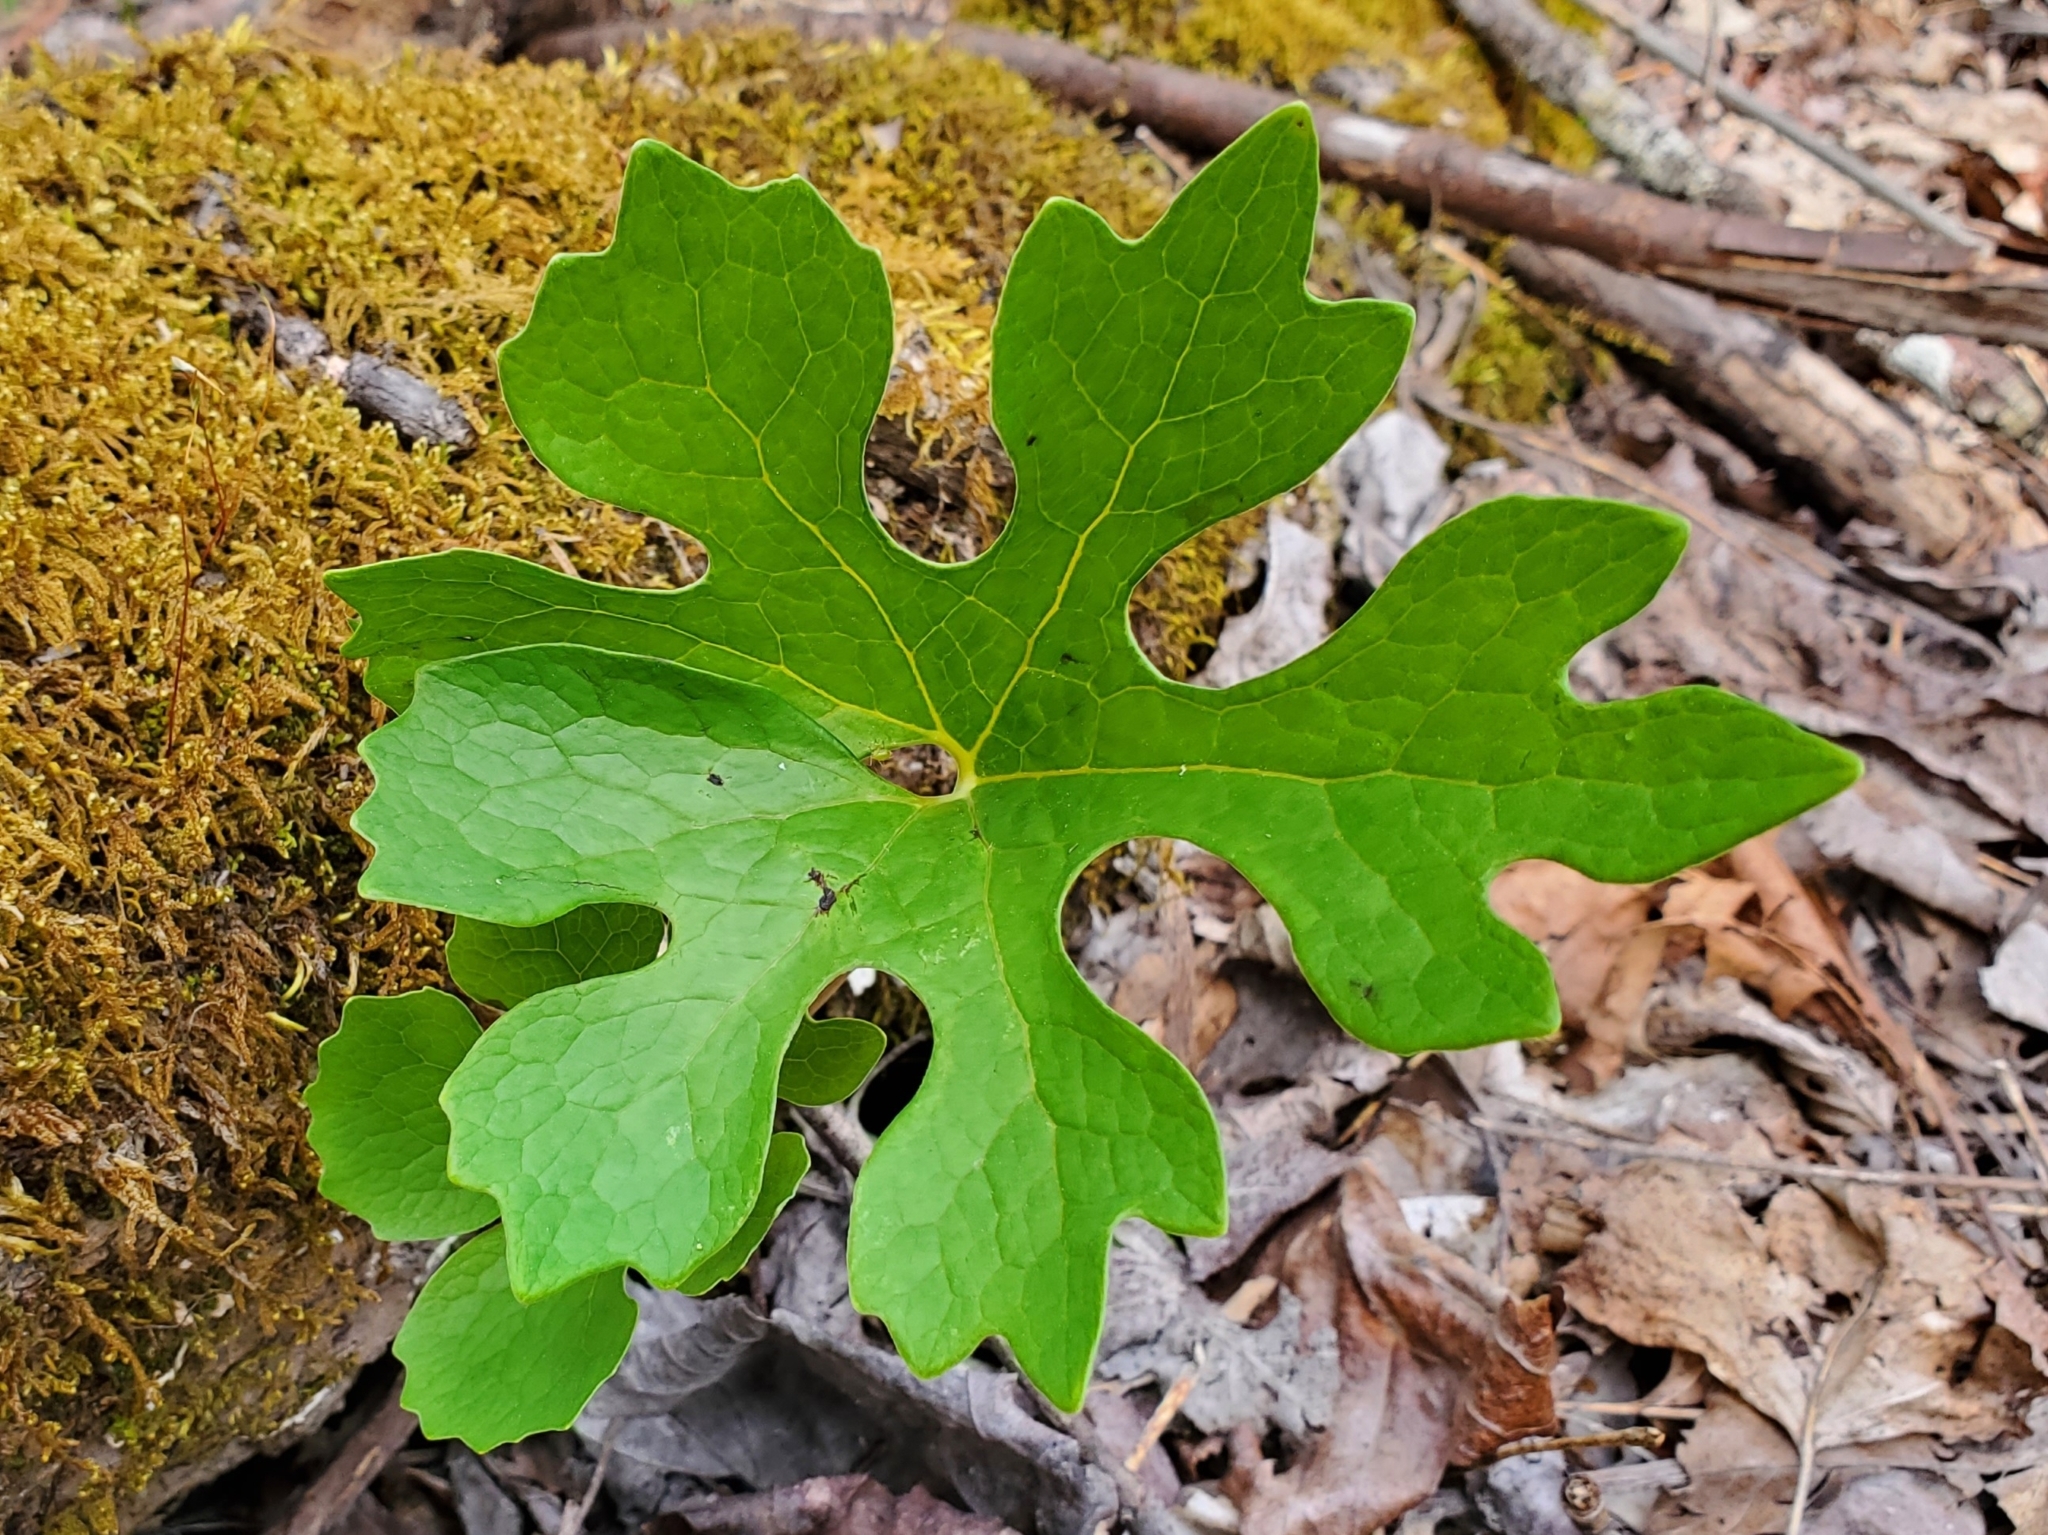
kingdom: Plantae
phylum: Tracheophyta
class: Magnoliopsida
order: Ranunculales
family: Papaveraceae
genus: Sanguinaria
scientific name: Sanguinaria canadensis
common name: Bloodroot
